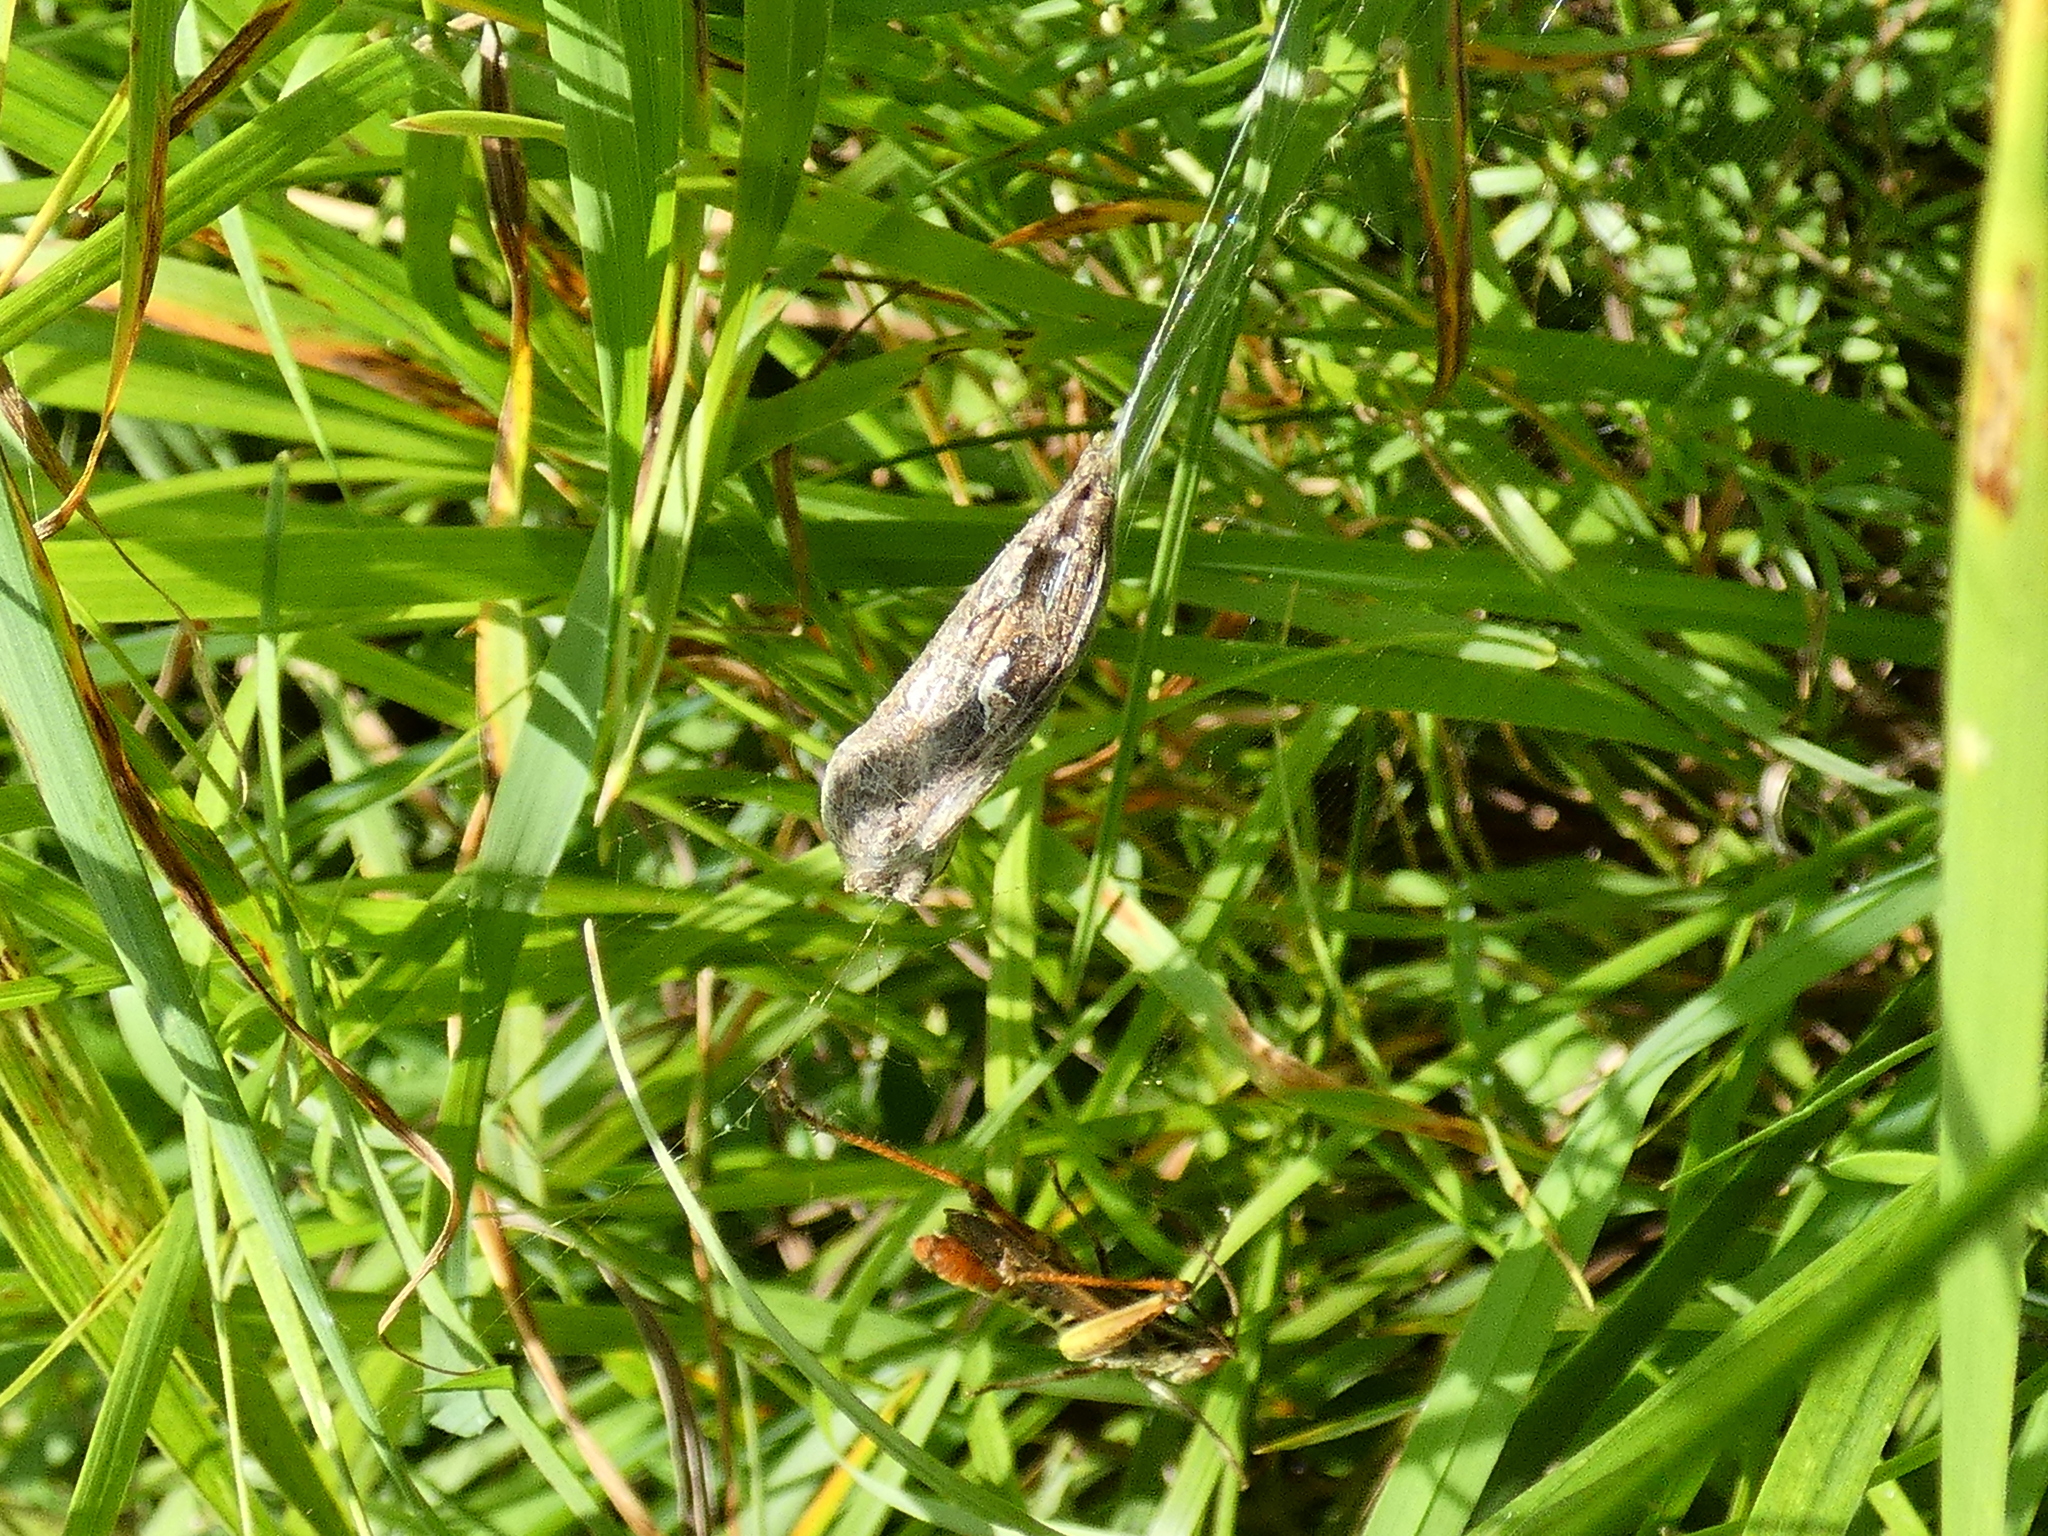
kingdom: Animalia
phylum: Arthropoda
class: Insecta
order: Lepidoptera
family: Noctuidae
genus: Autographa
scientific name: Autographa gamma
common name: Silver y
